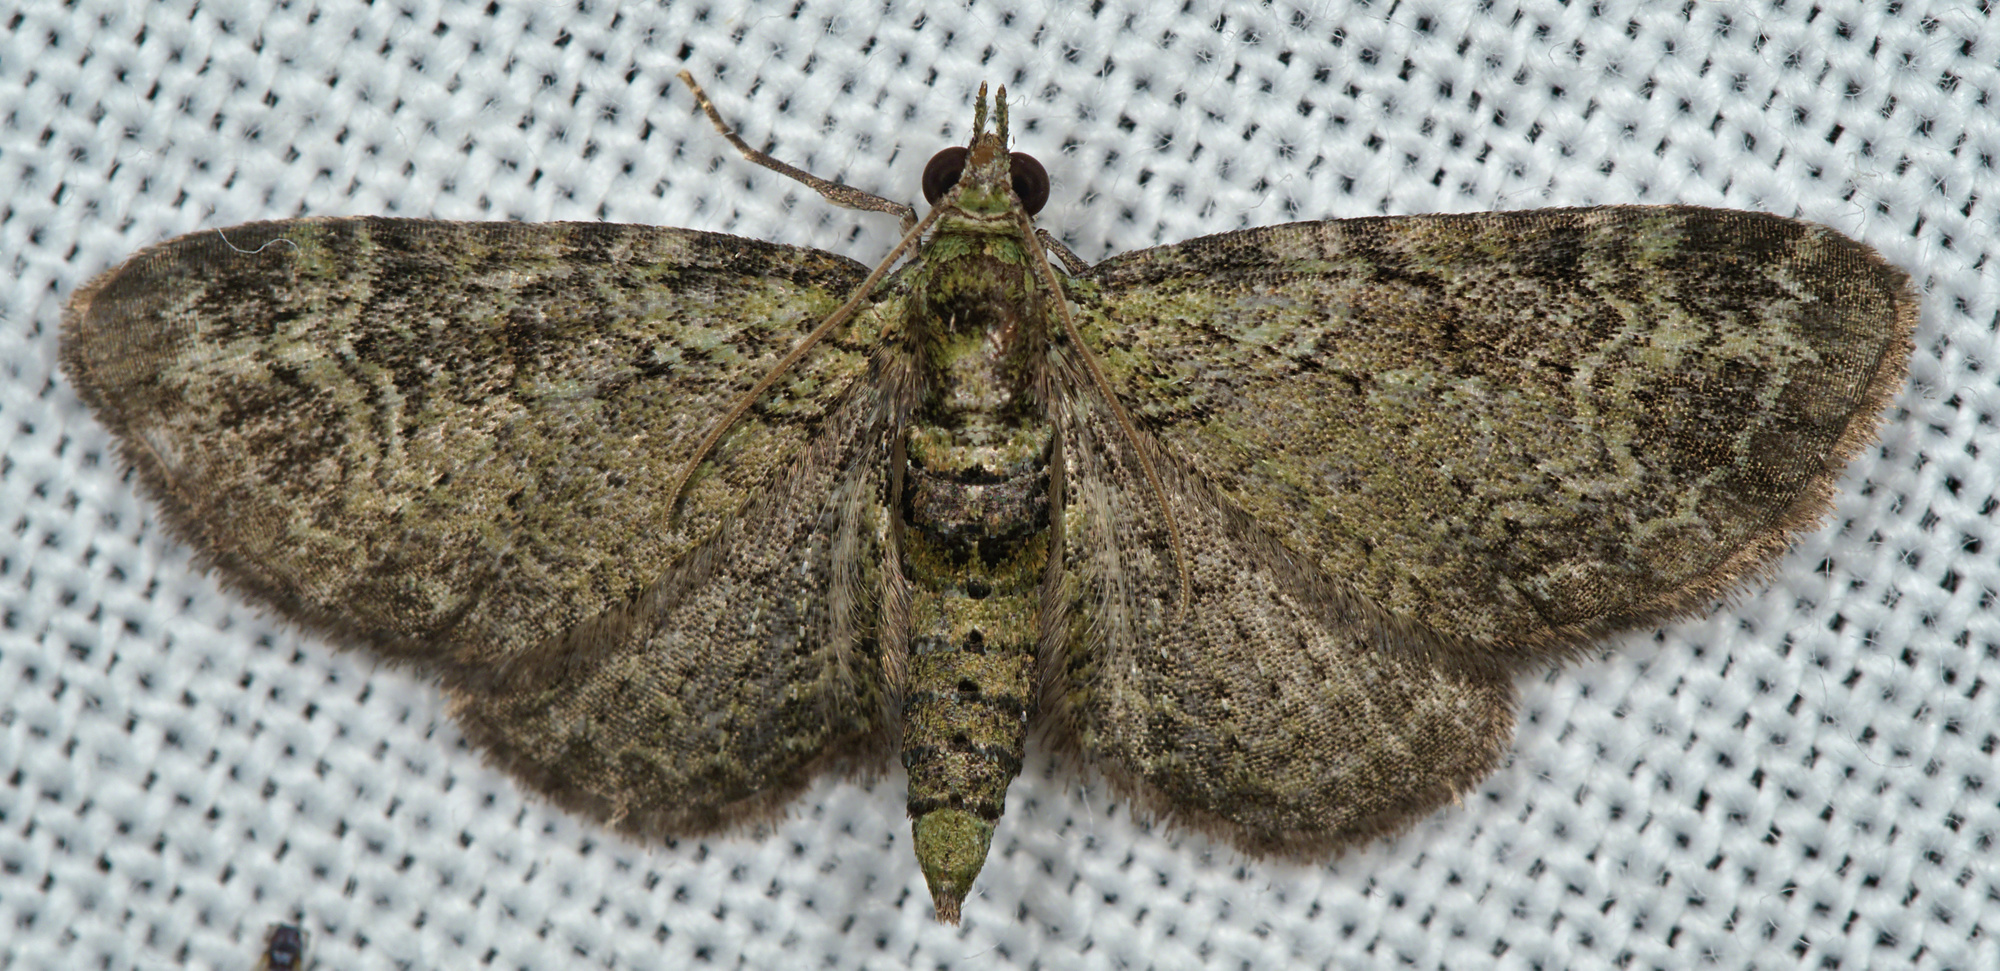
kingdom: Animalia
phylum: Arthropoda
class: Insecta
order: Lepidoptera
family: Geometridae
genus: Pasiphila
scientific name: Pasiphila rectangulata
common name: Green pug
